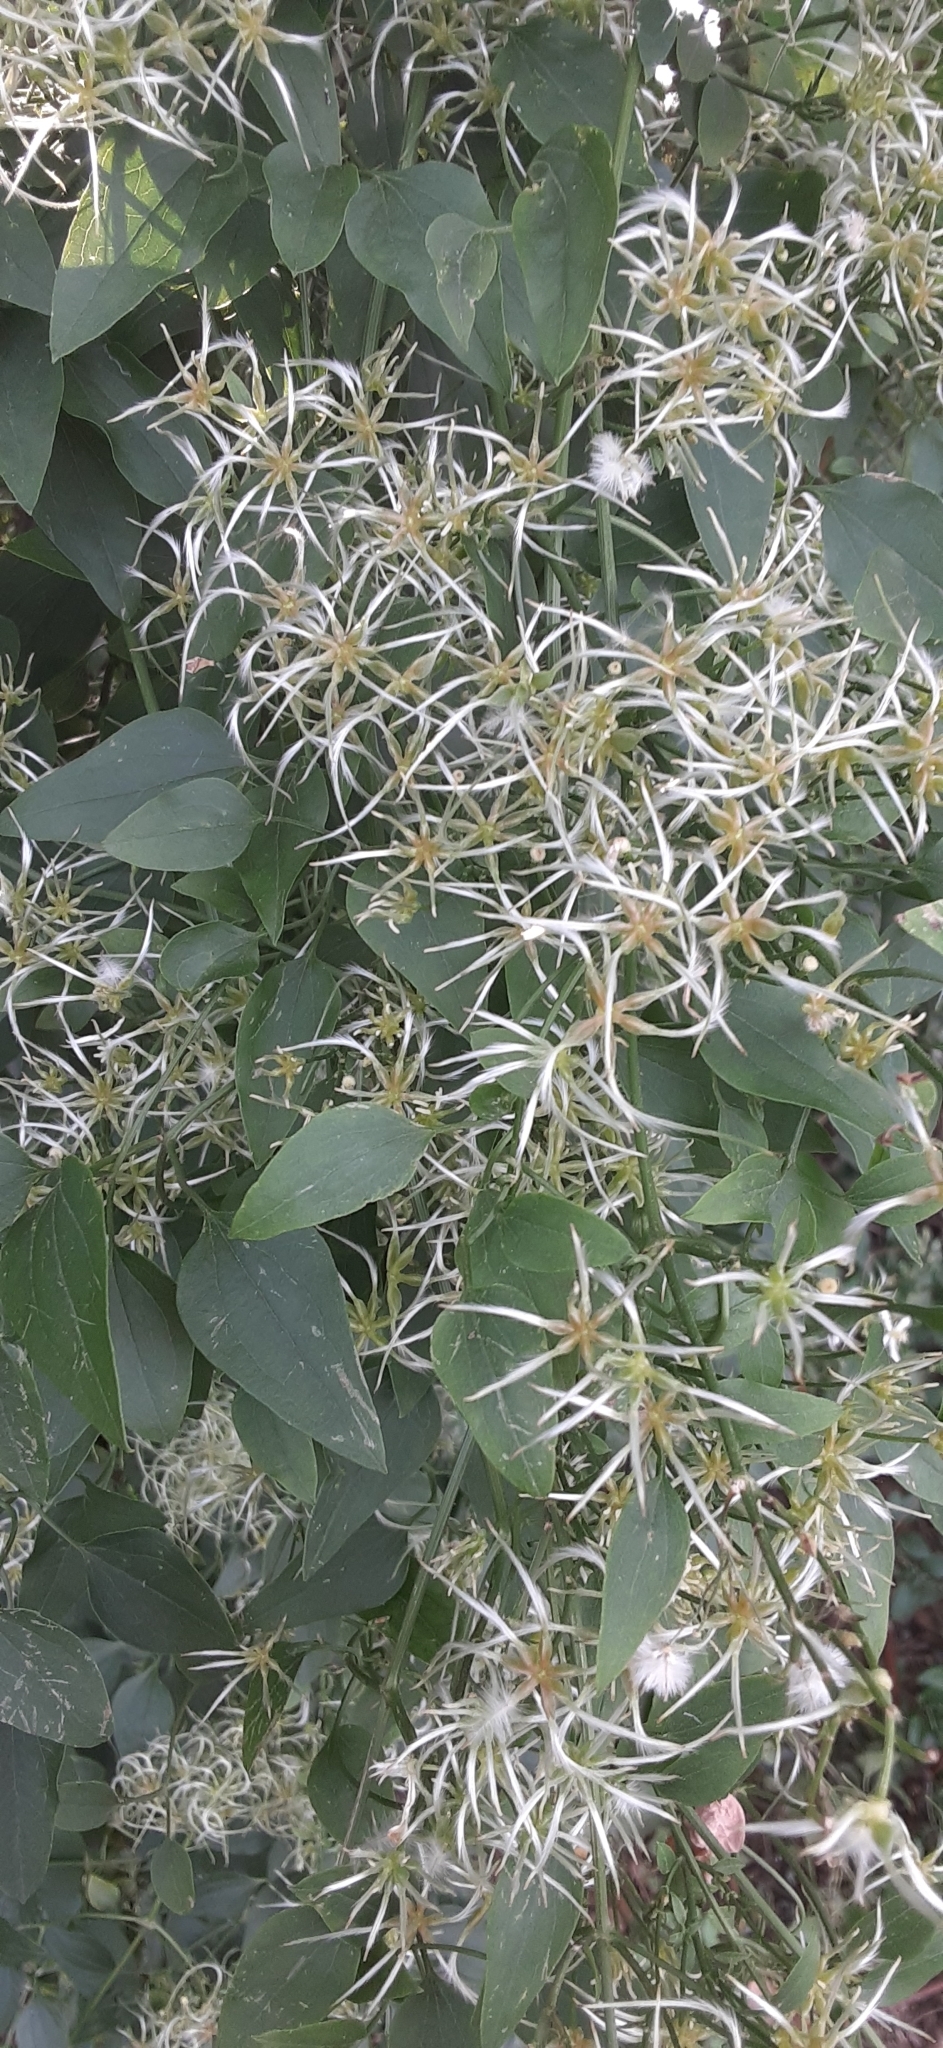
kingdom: Plantae
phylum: Tracheophyta
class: Magnoliopsida
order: Ranunculales
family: Ranunculaceae
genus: Clematis
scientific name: Clematis terniflora
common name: Sweet autumn clematis
